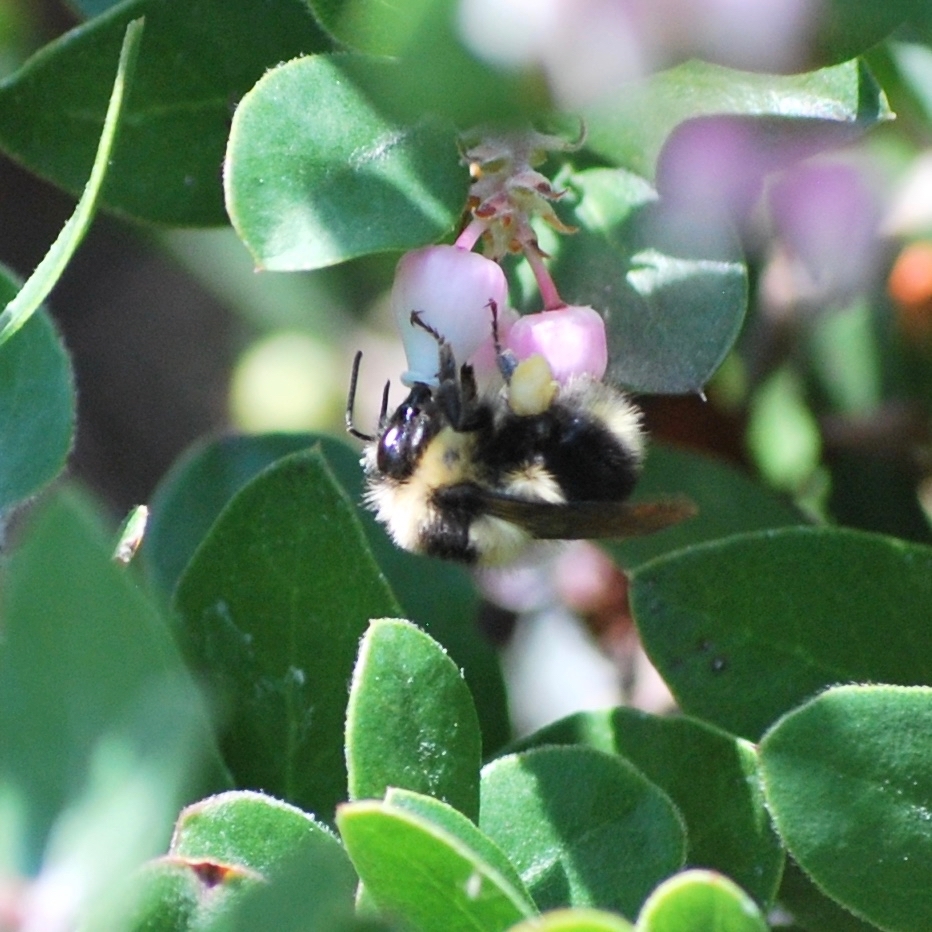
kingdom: Animalia
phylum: Arthropoda
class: Insecta
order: Hymenoptera
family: Apidae
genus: Bombus
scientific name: Bombus melanopygus
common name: Black tail bumble bee
